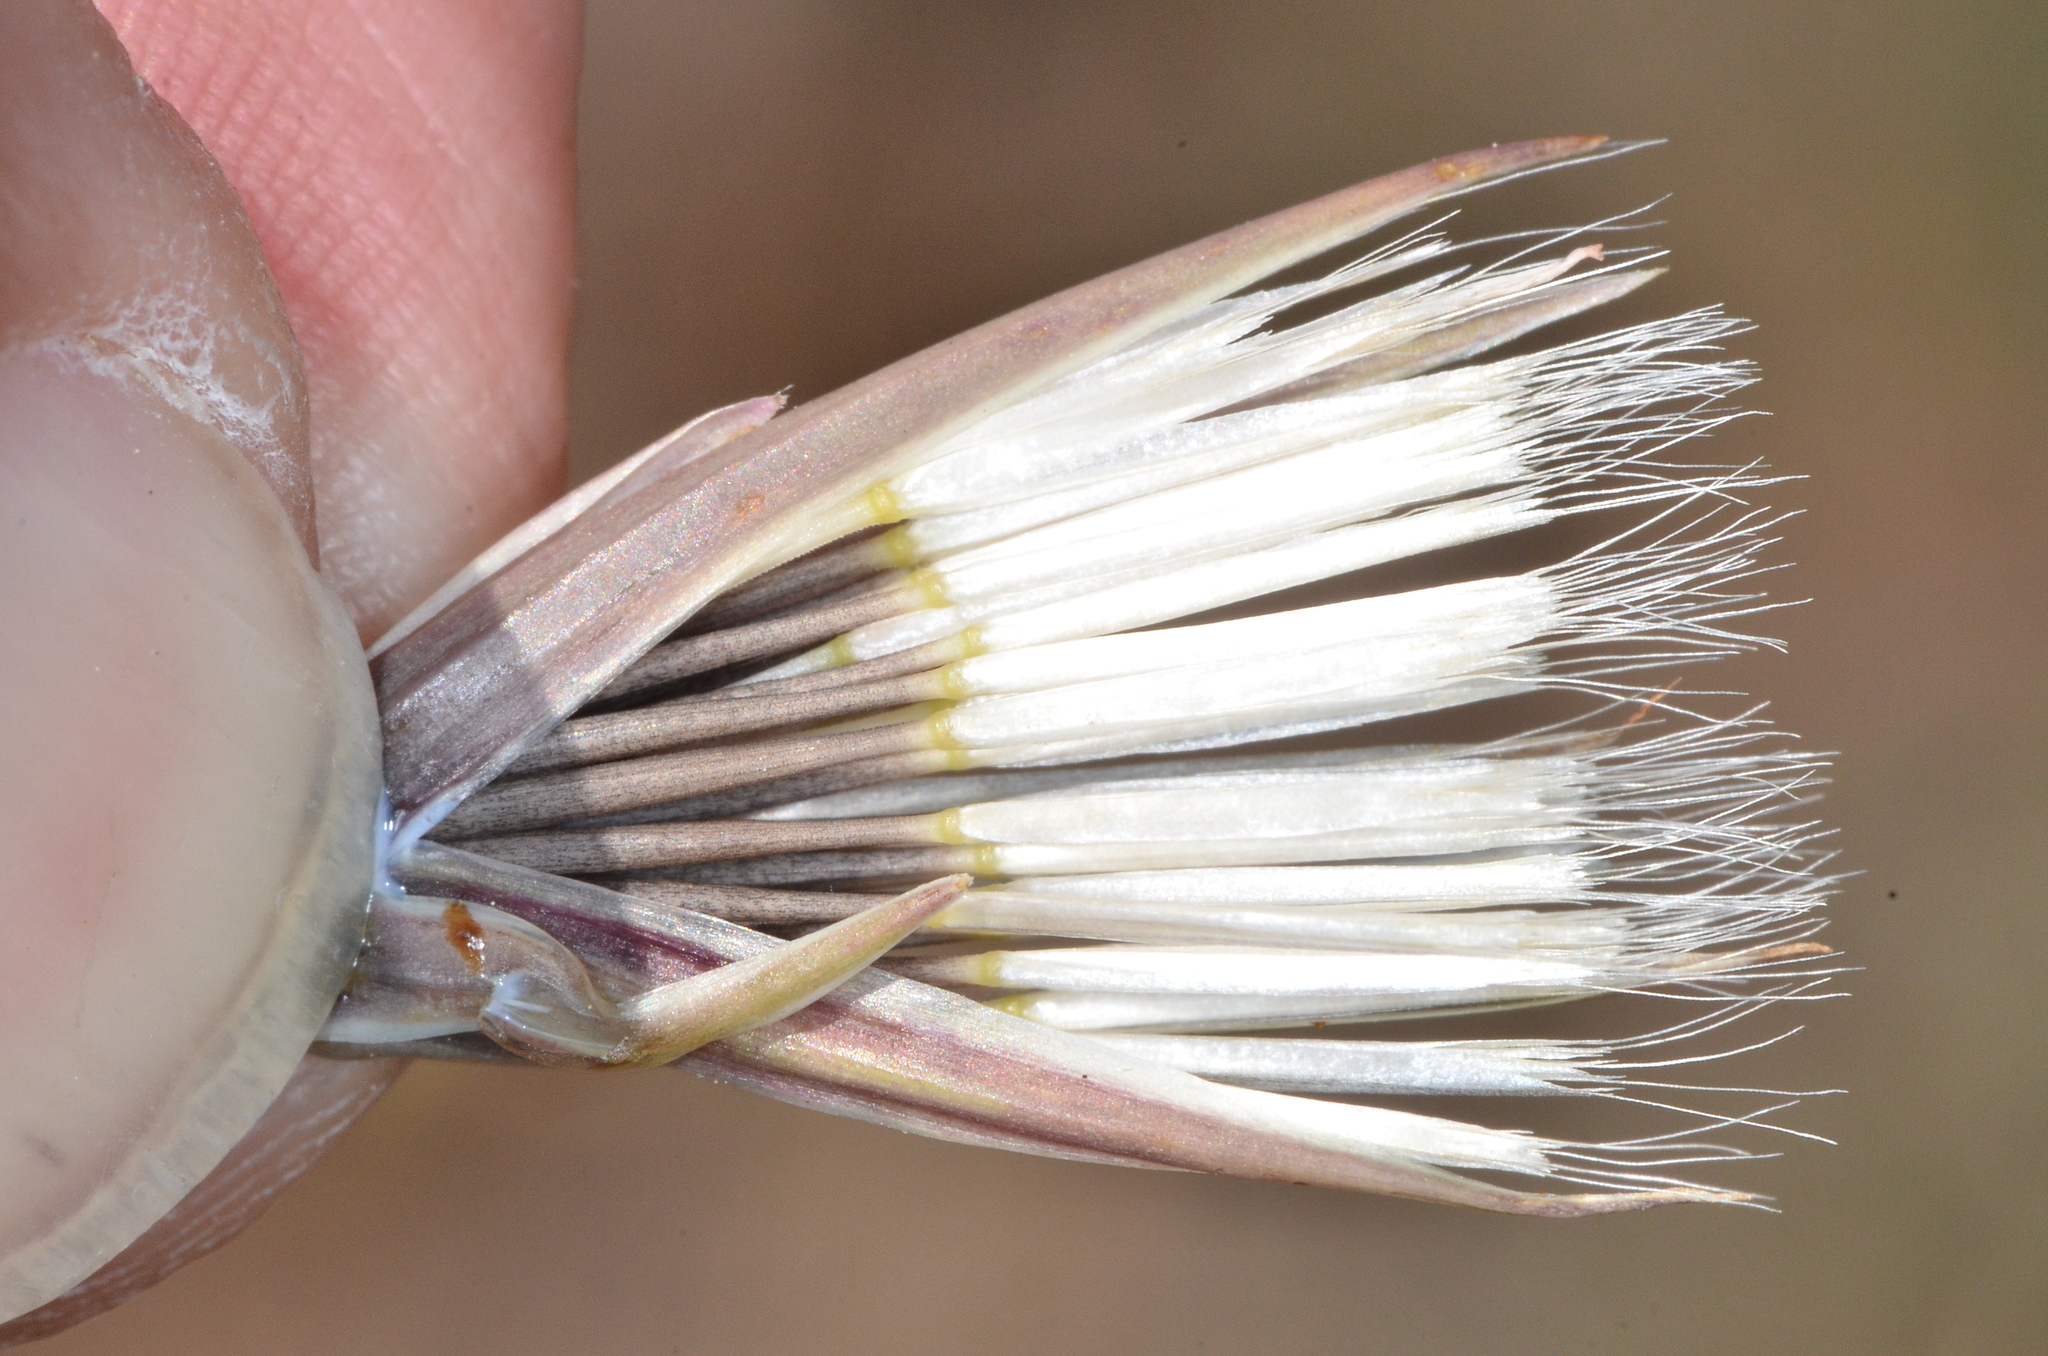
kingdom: Plantae
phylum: Tracheophyta
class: Magnoliopsida
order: Asterales
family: Asteraceae
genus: Microseris
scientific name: Microseris lindleyi
